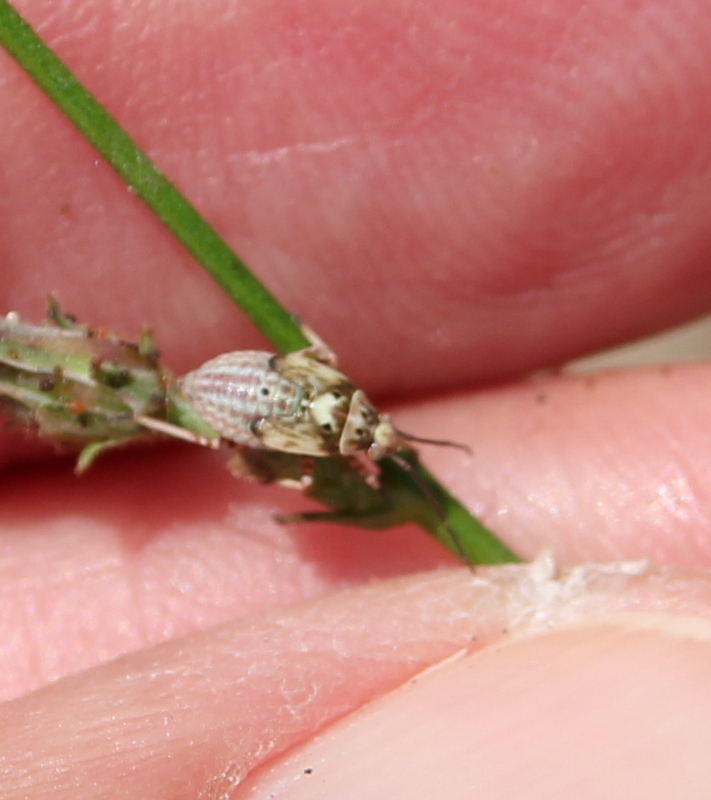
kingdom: Animalia
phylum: Arthropoda
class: Insecta
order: Hemiptera
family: Miridae
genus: Lygus
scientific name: Lygus
